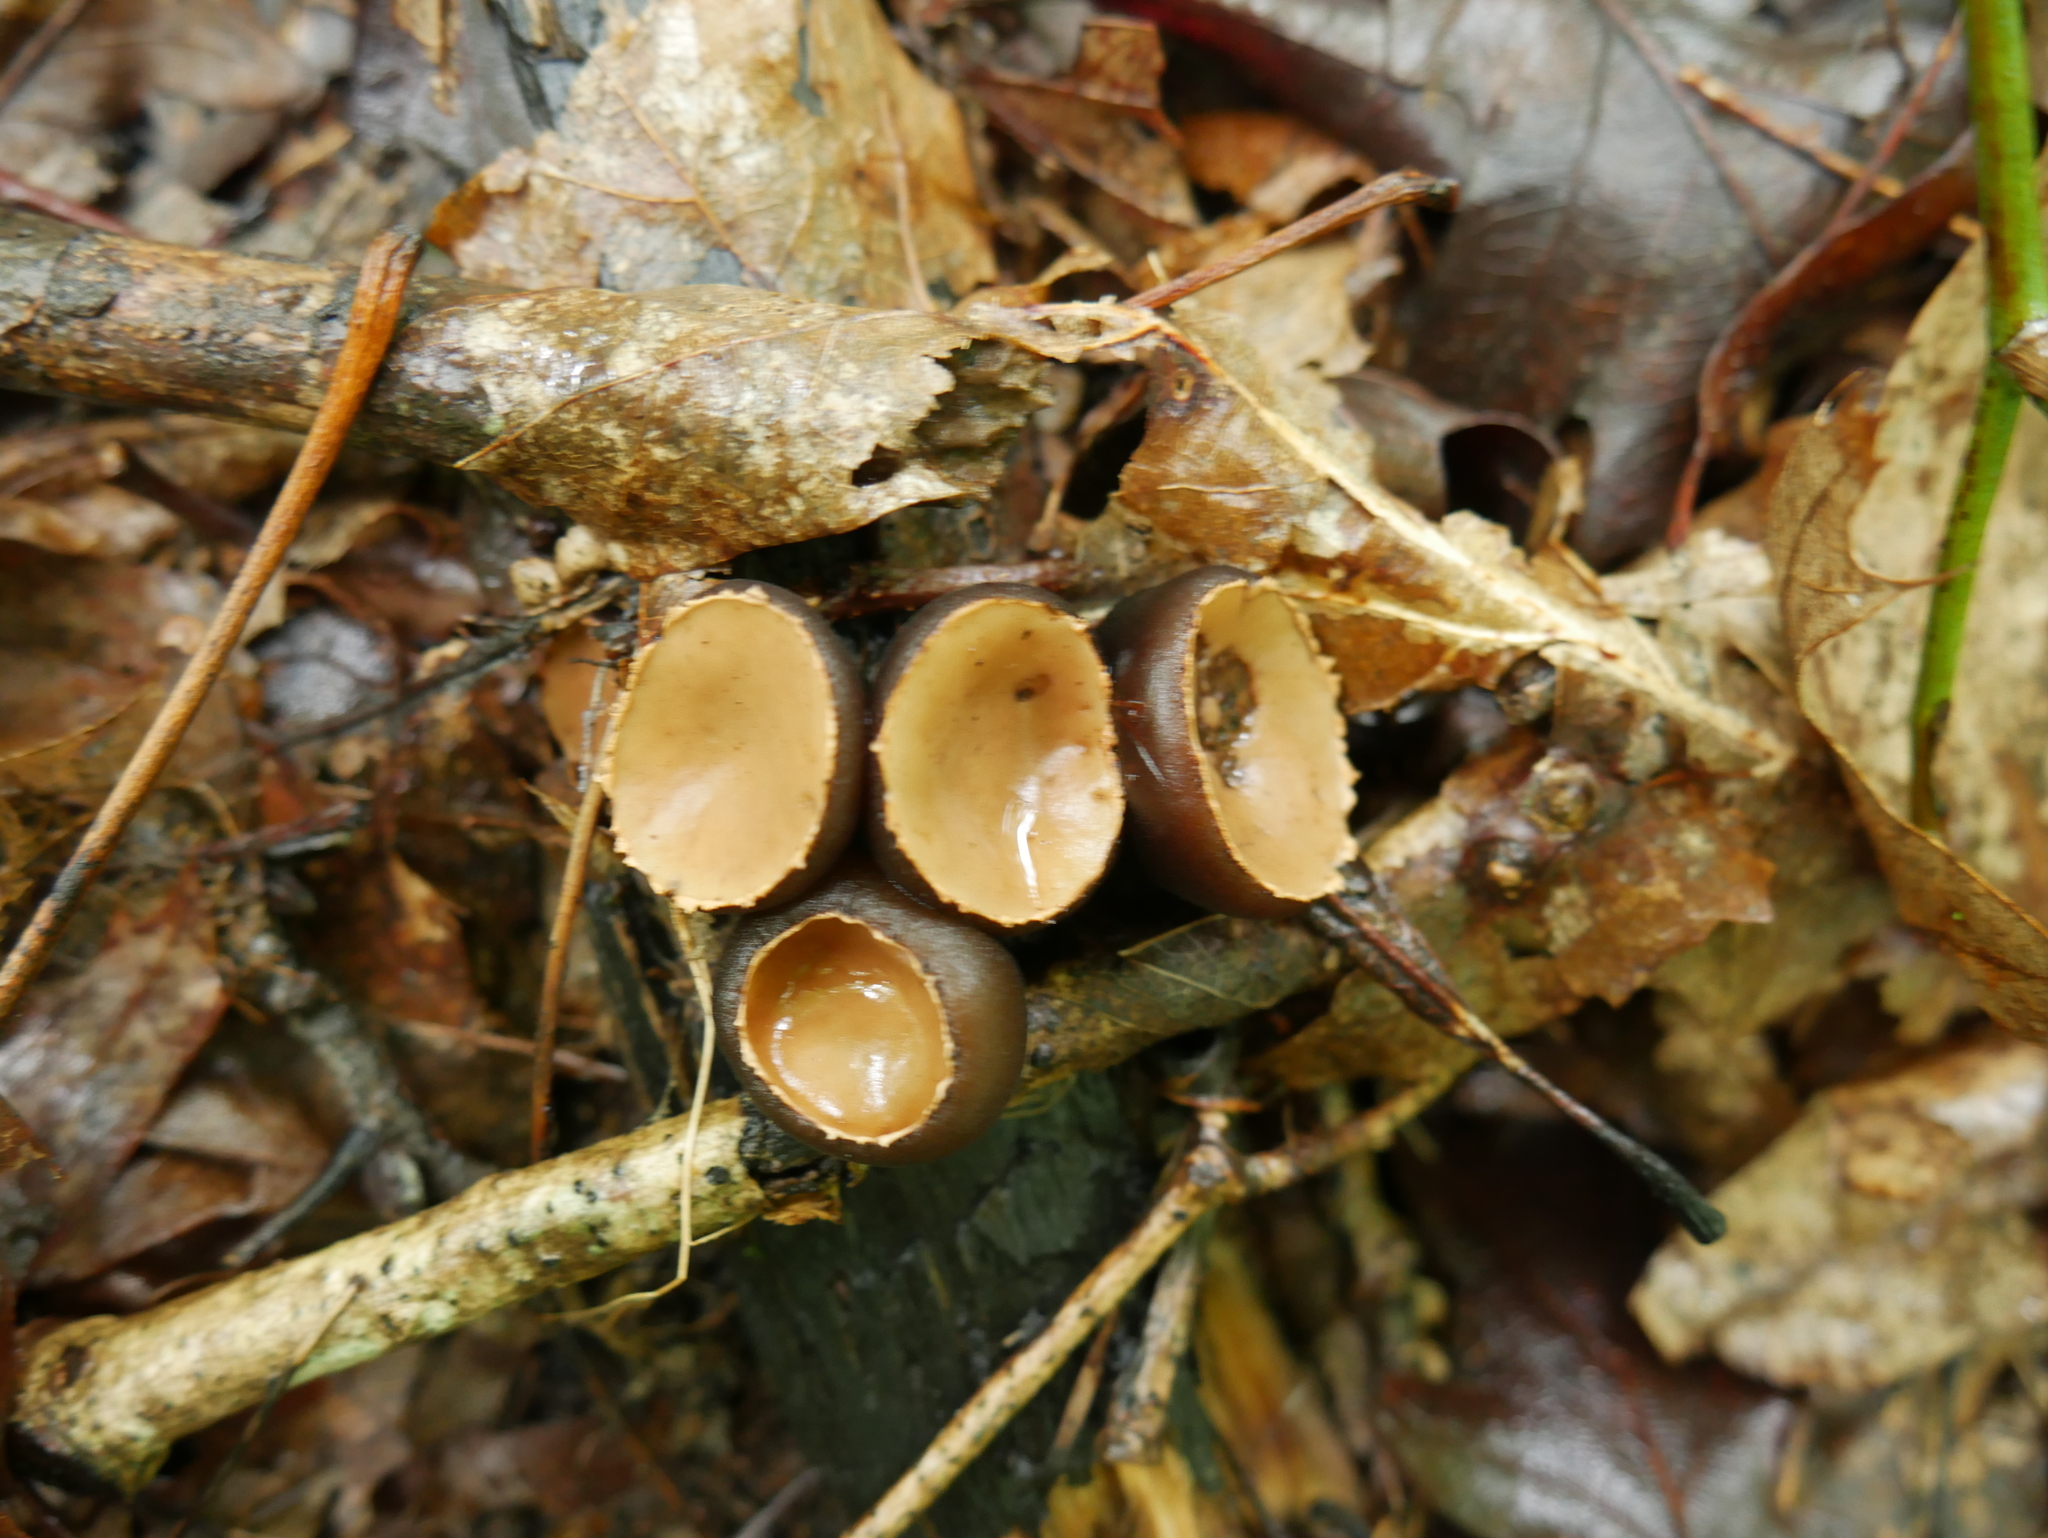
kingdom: Fungi
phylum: Ascomycota
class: Pezizomycetes
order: Pezizales
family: Sarcosomataceae
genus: Galiella
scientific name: Galiella rufa
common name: Hairy rubber cup
